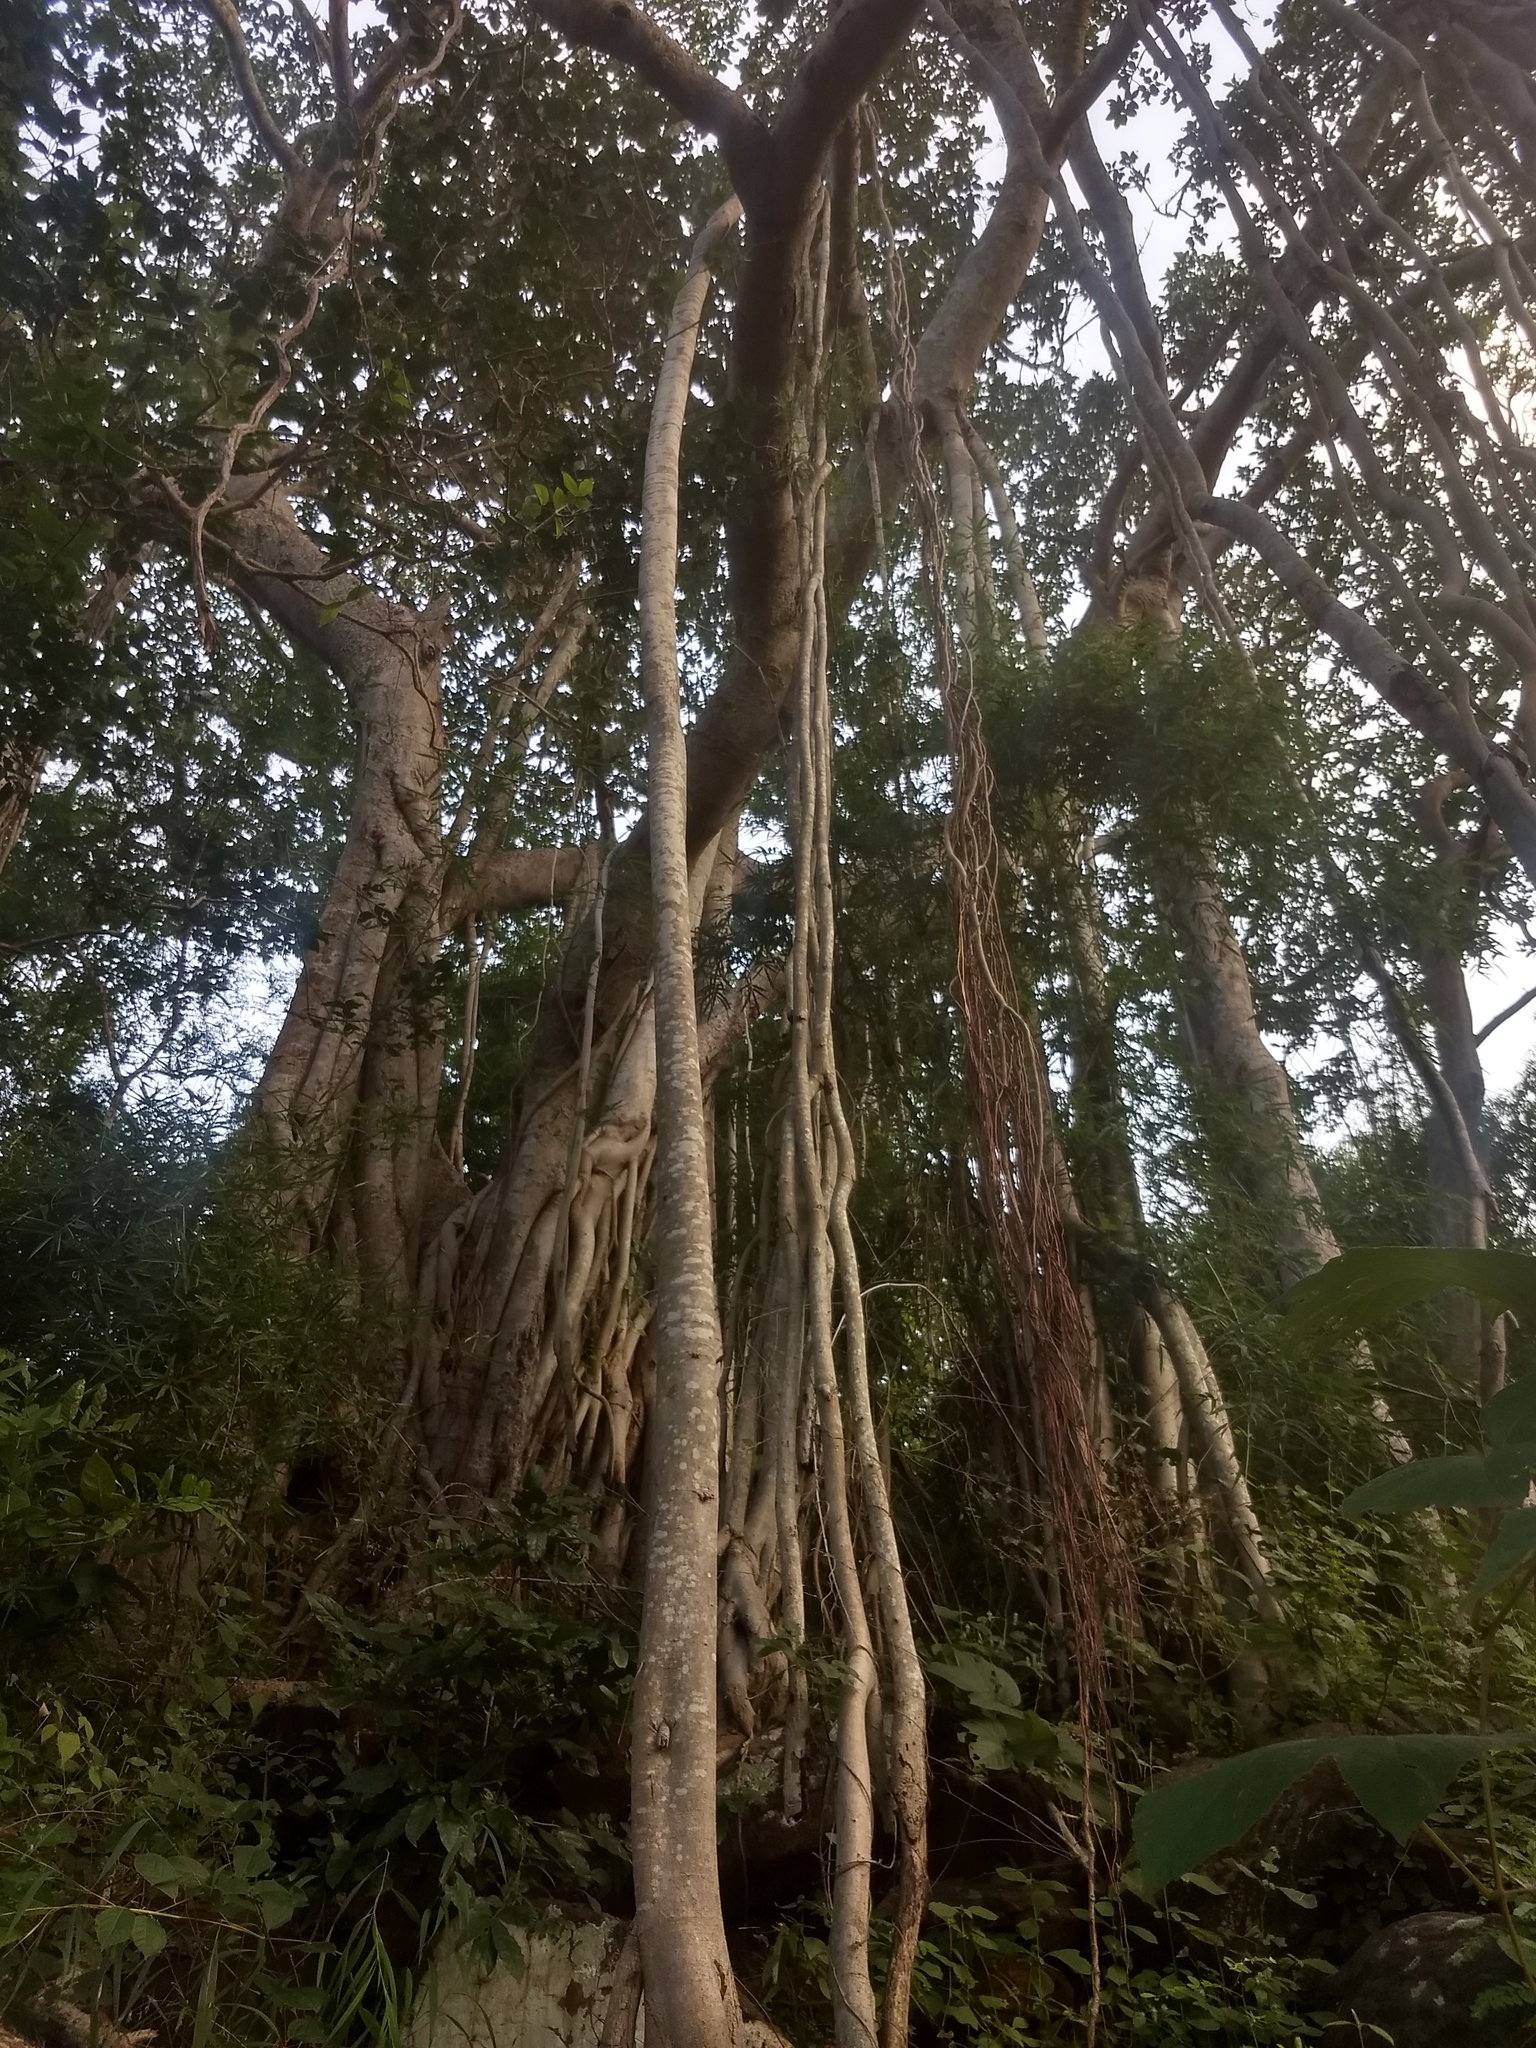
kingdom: Plantae
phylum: Tracheophyta
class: Magnoliopsida
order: Rosales
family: Moraceae
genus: Ficus
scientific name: Ficus benghalensis
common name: Indian banyan
